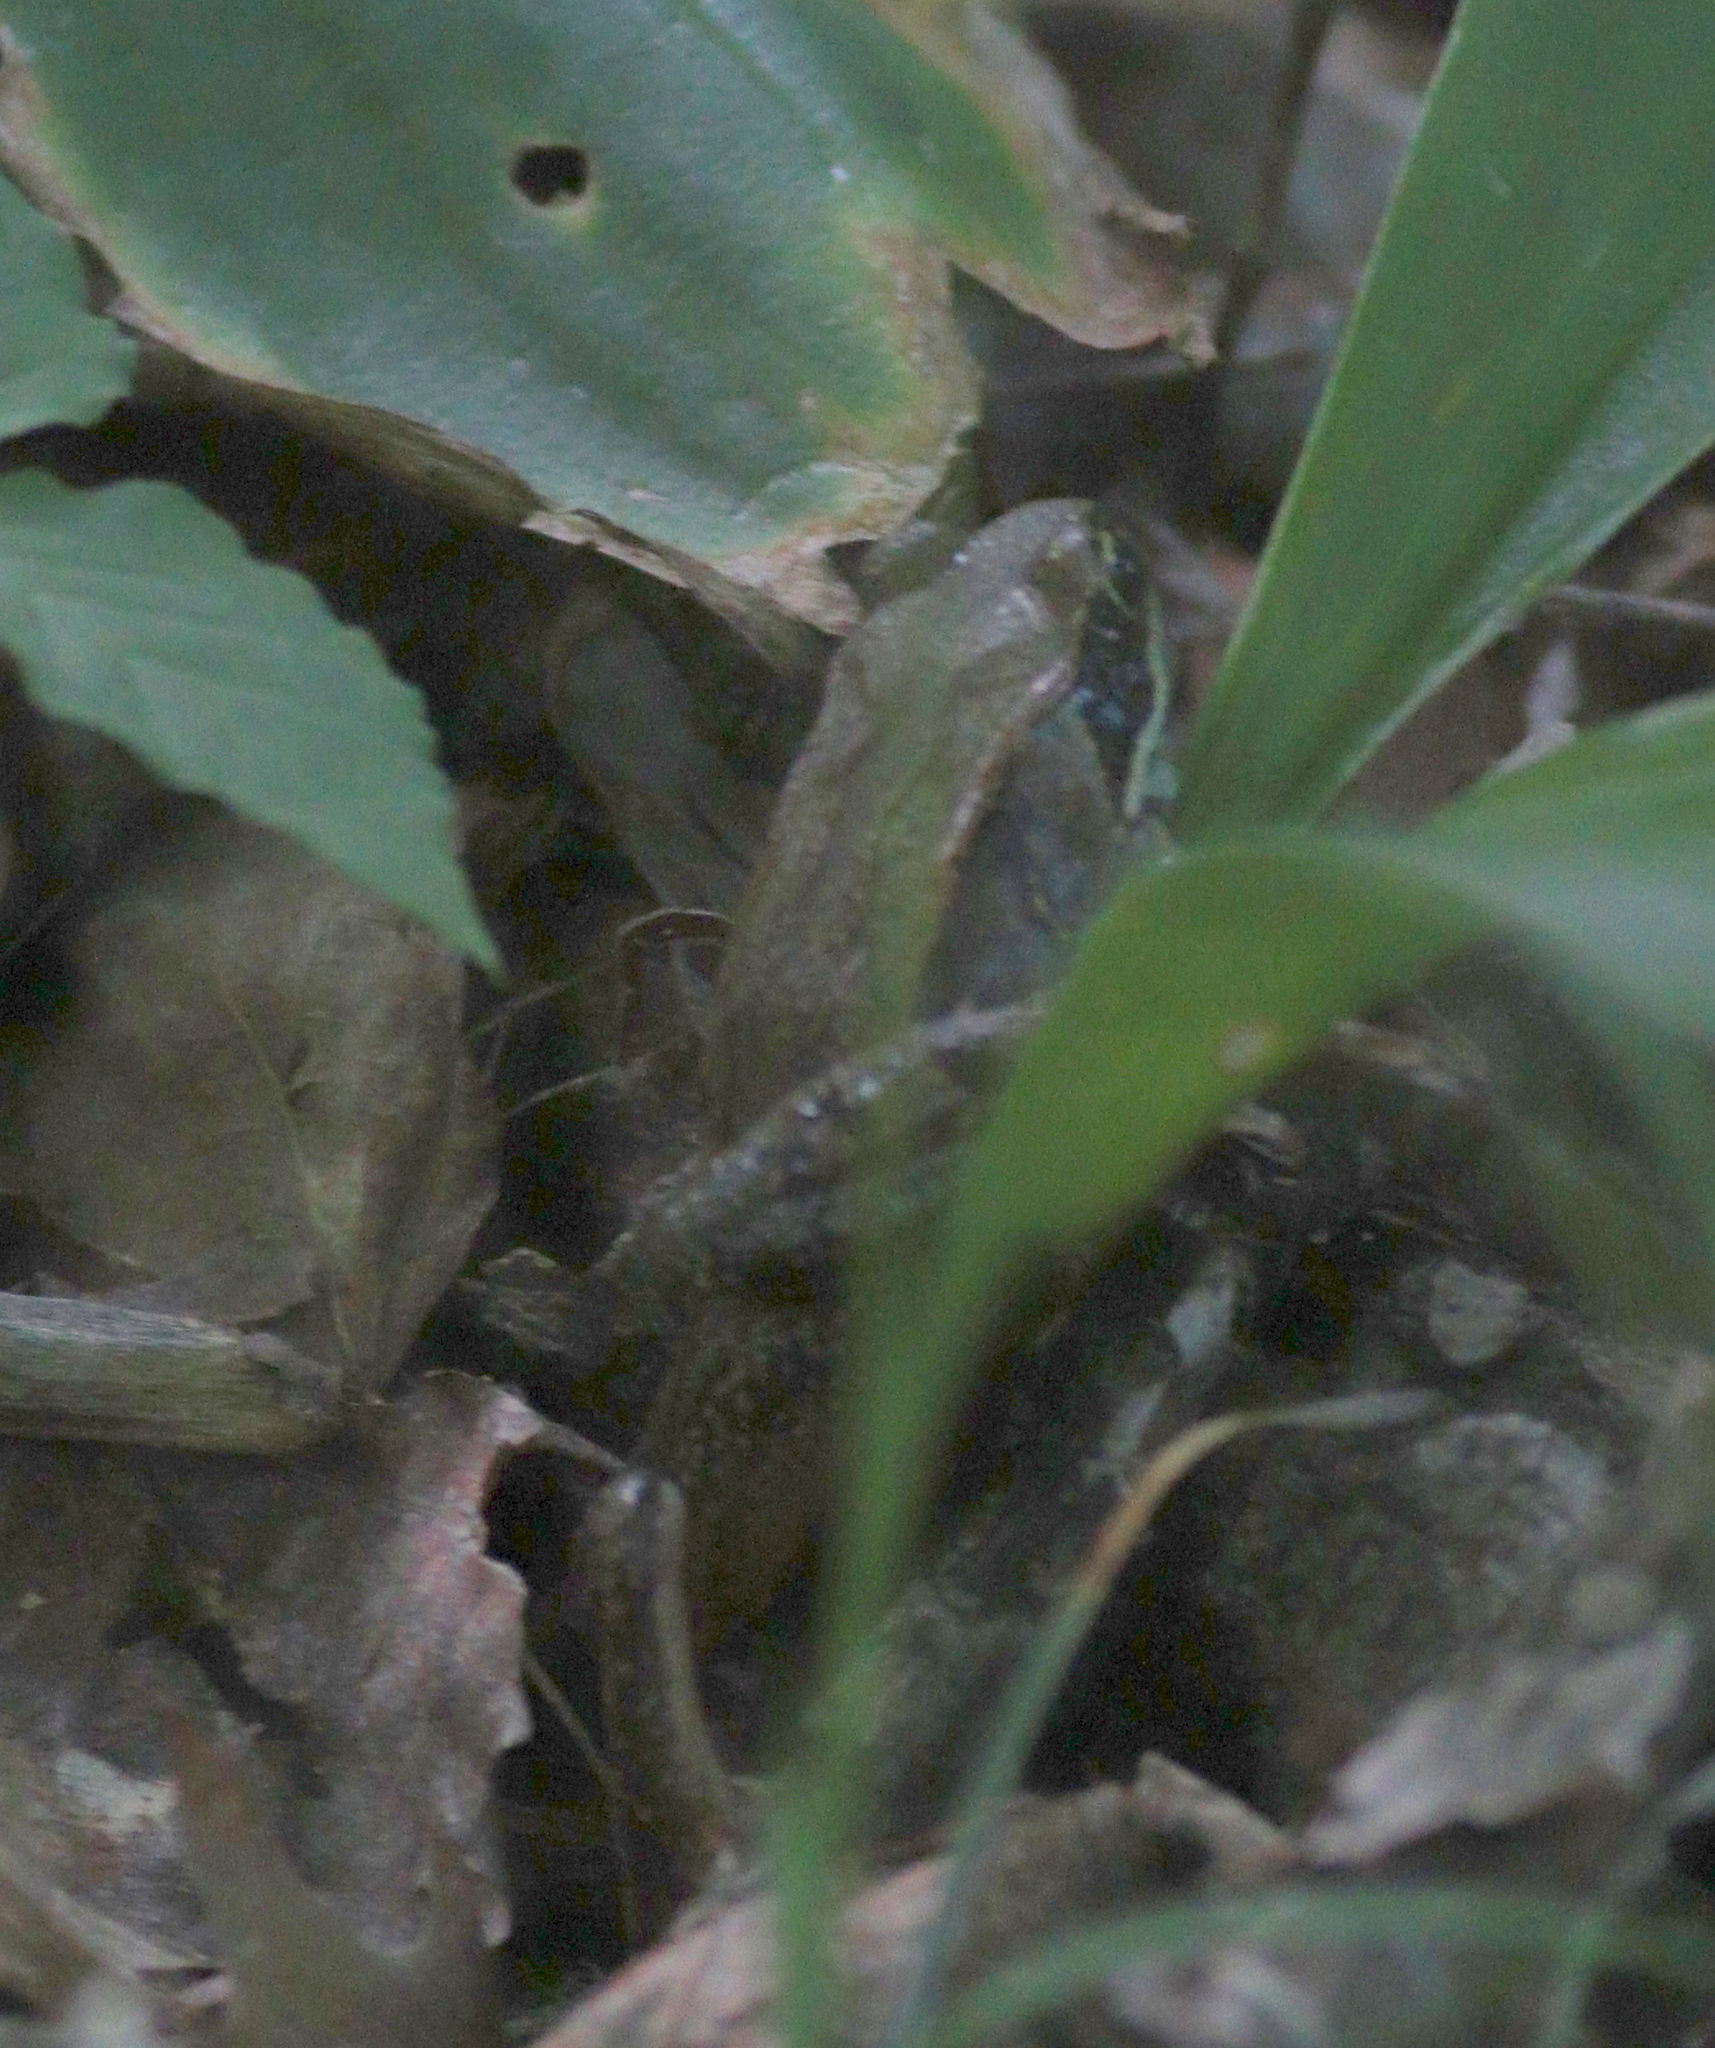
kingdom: Animalia
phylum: Chordata
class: Amphibia
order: Anura
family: Ranidae
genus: Lithobates
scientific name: Lithobates sylvaticus
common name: Wood frog
